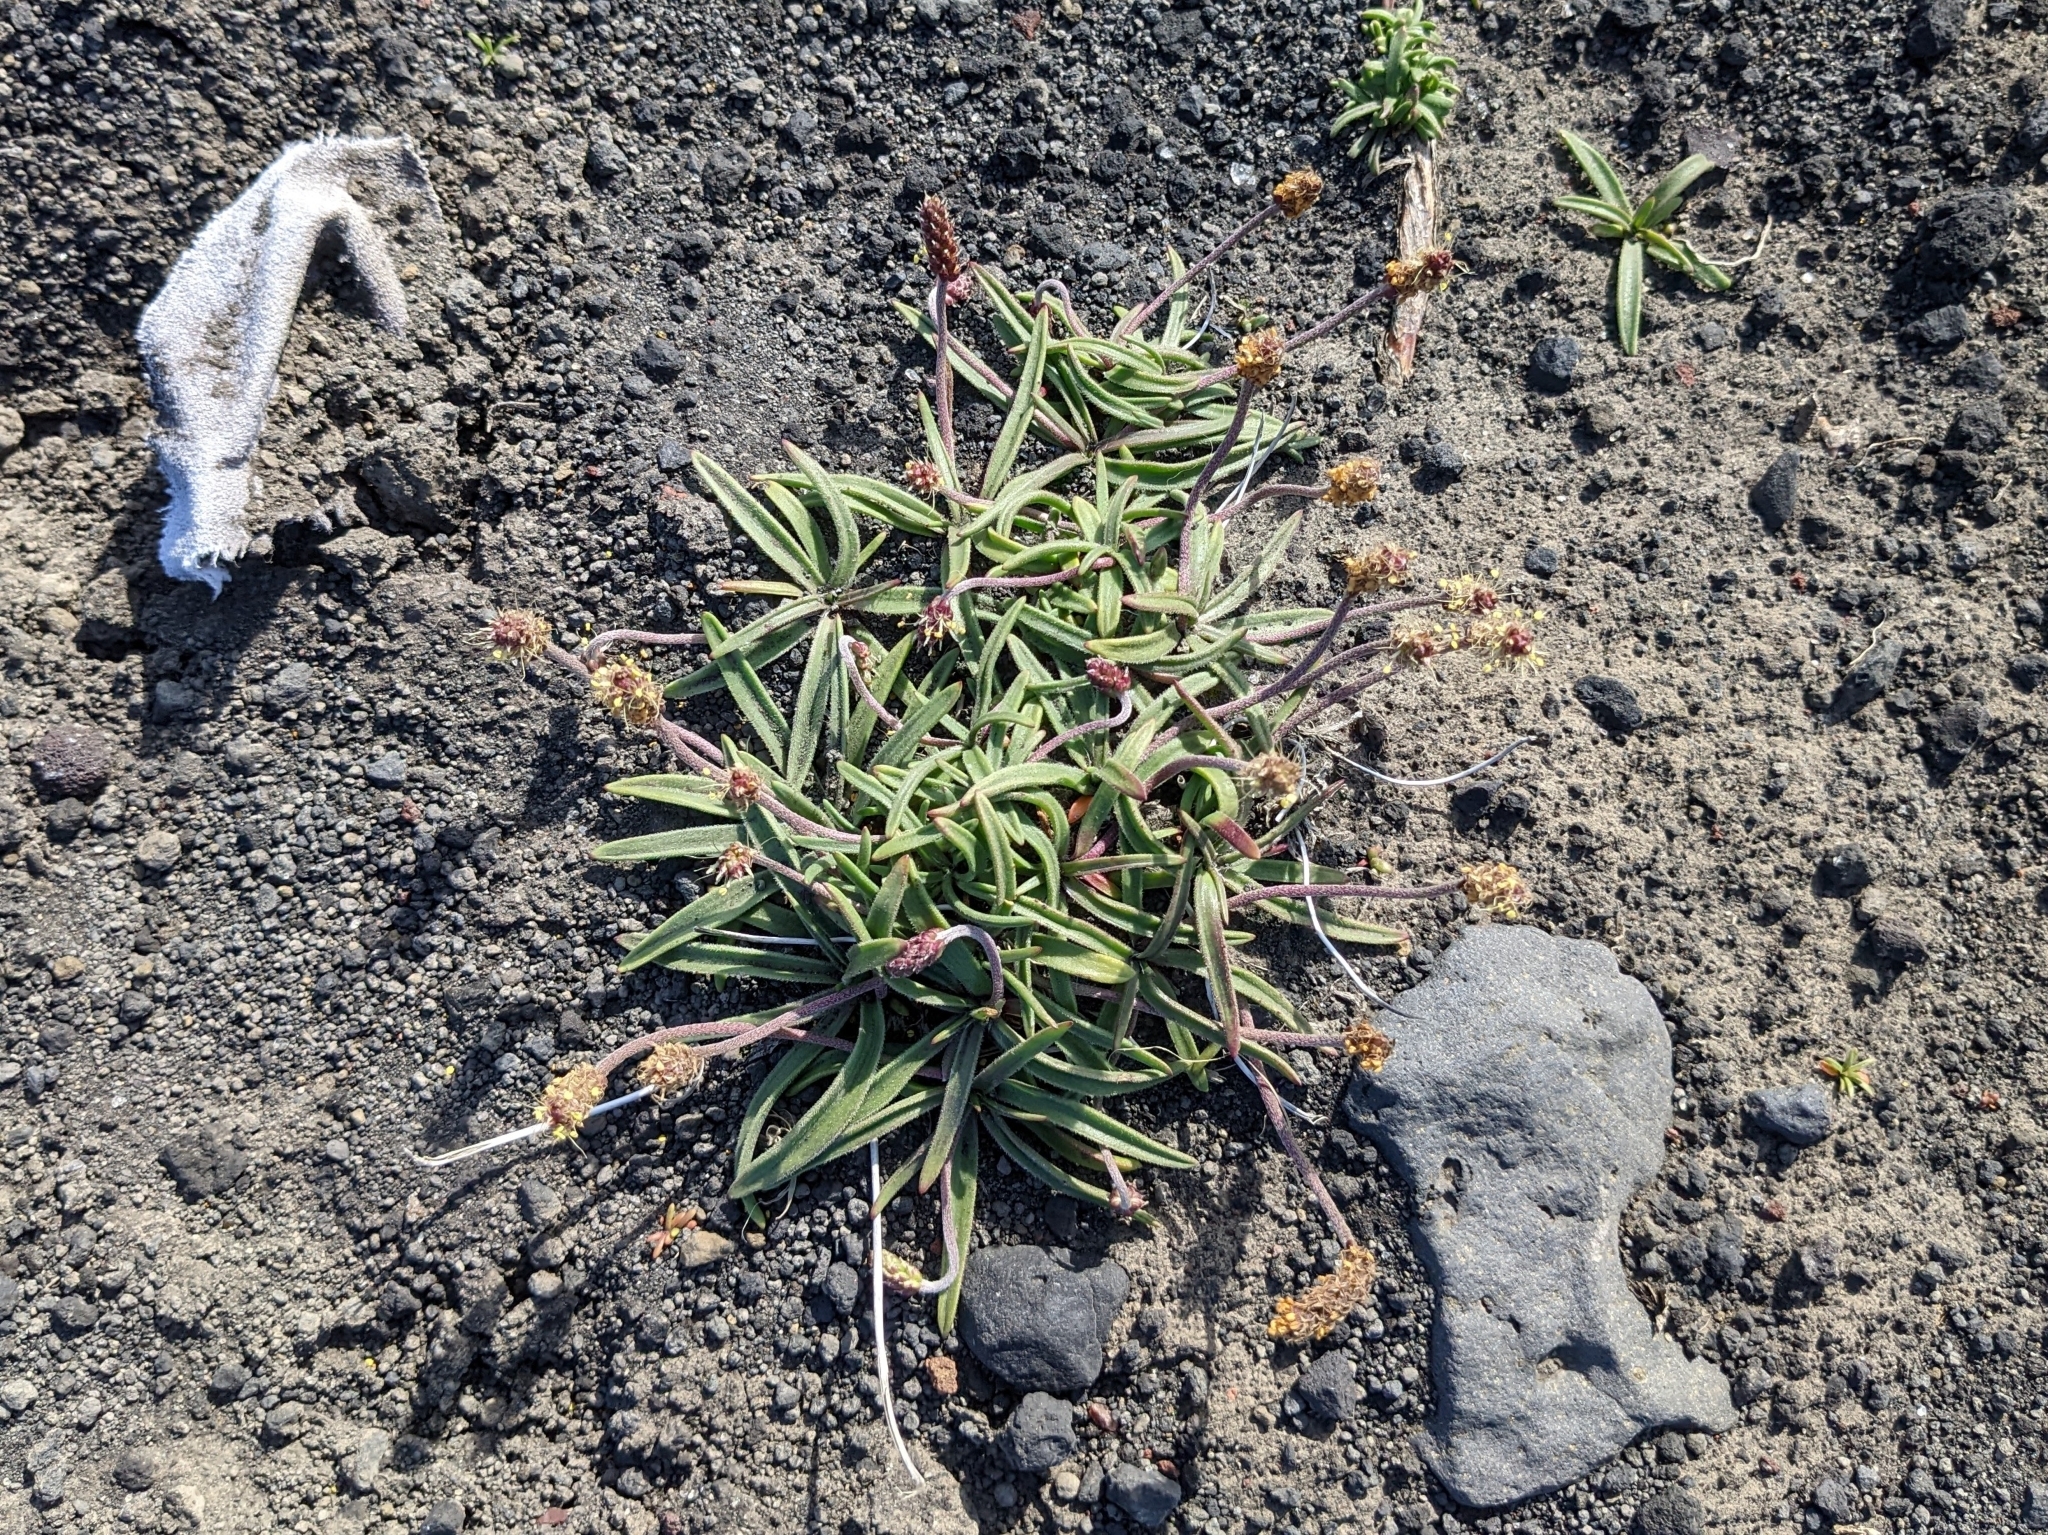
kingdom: Plantae
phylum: Tracheophyta
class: Magnoliopsida
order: Lamiales
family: Plantaginaceae
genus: Plantago
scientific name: Plantago maritima
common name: Sea plantain
